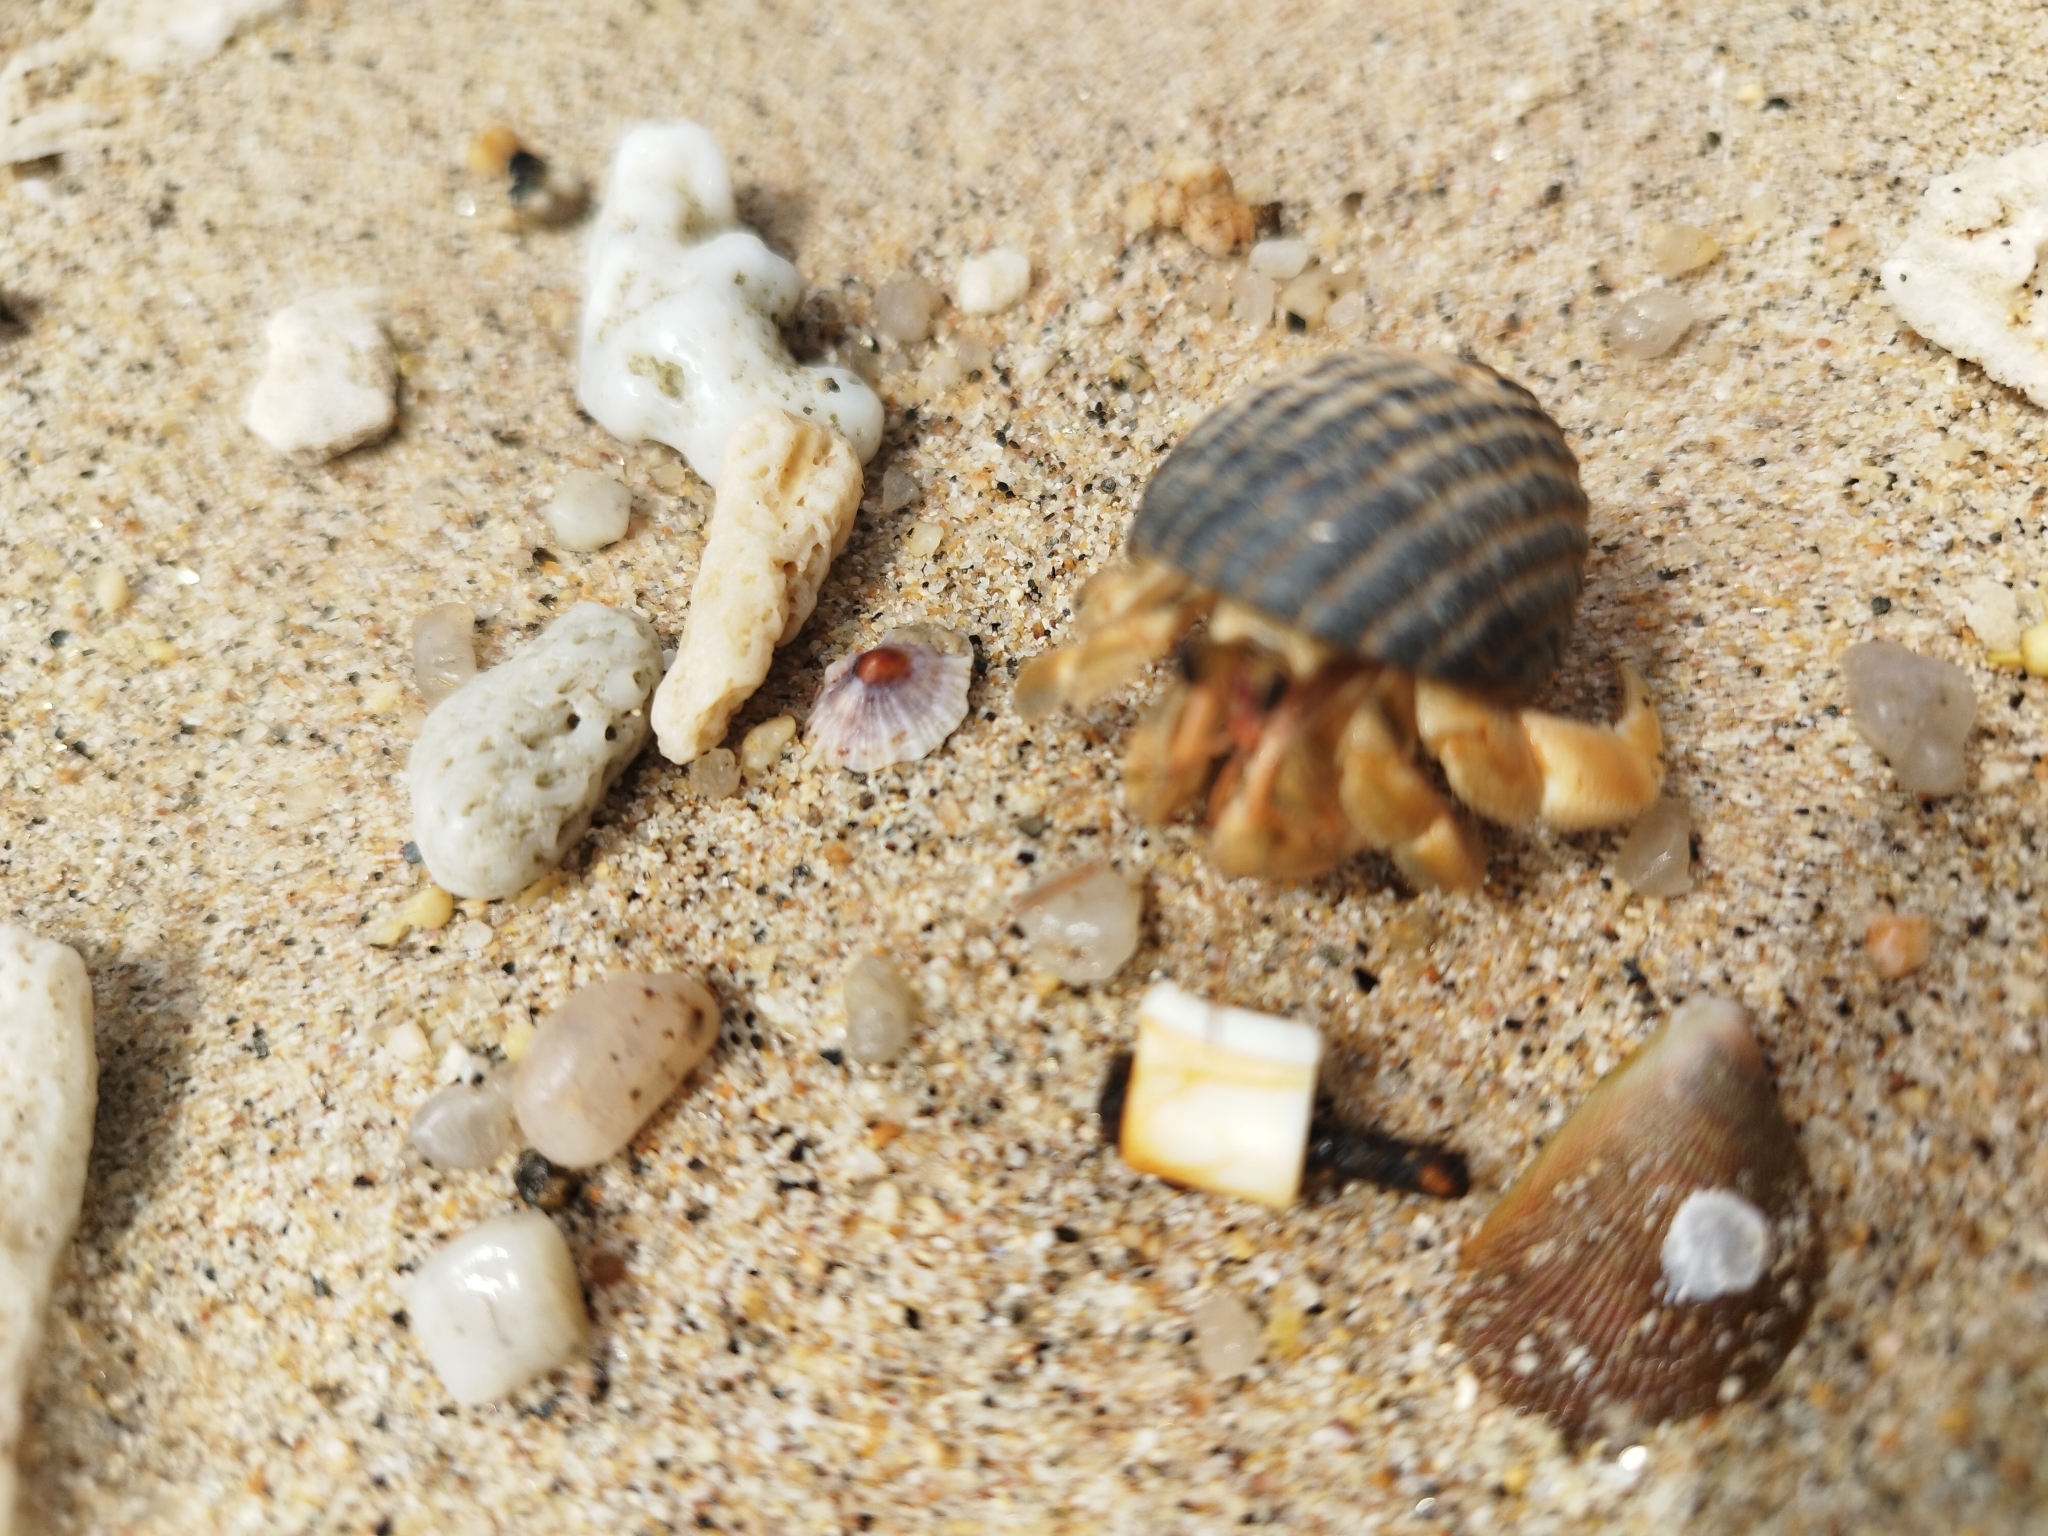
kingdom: Animalia
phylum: Arthropoda
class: Malacostraca
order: Decapoda
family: Coenobitidae
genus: Coenobita
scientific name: Coenobita rugosus
